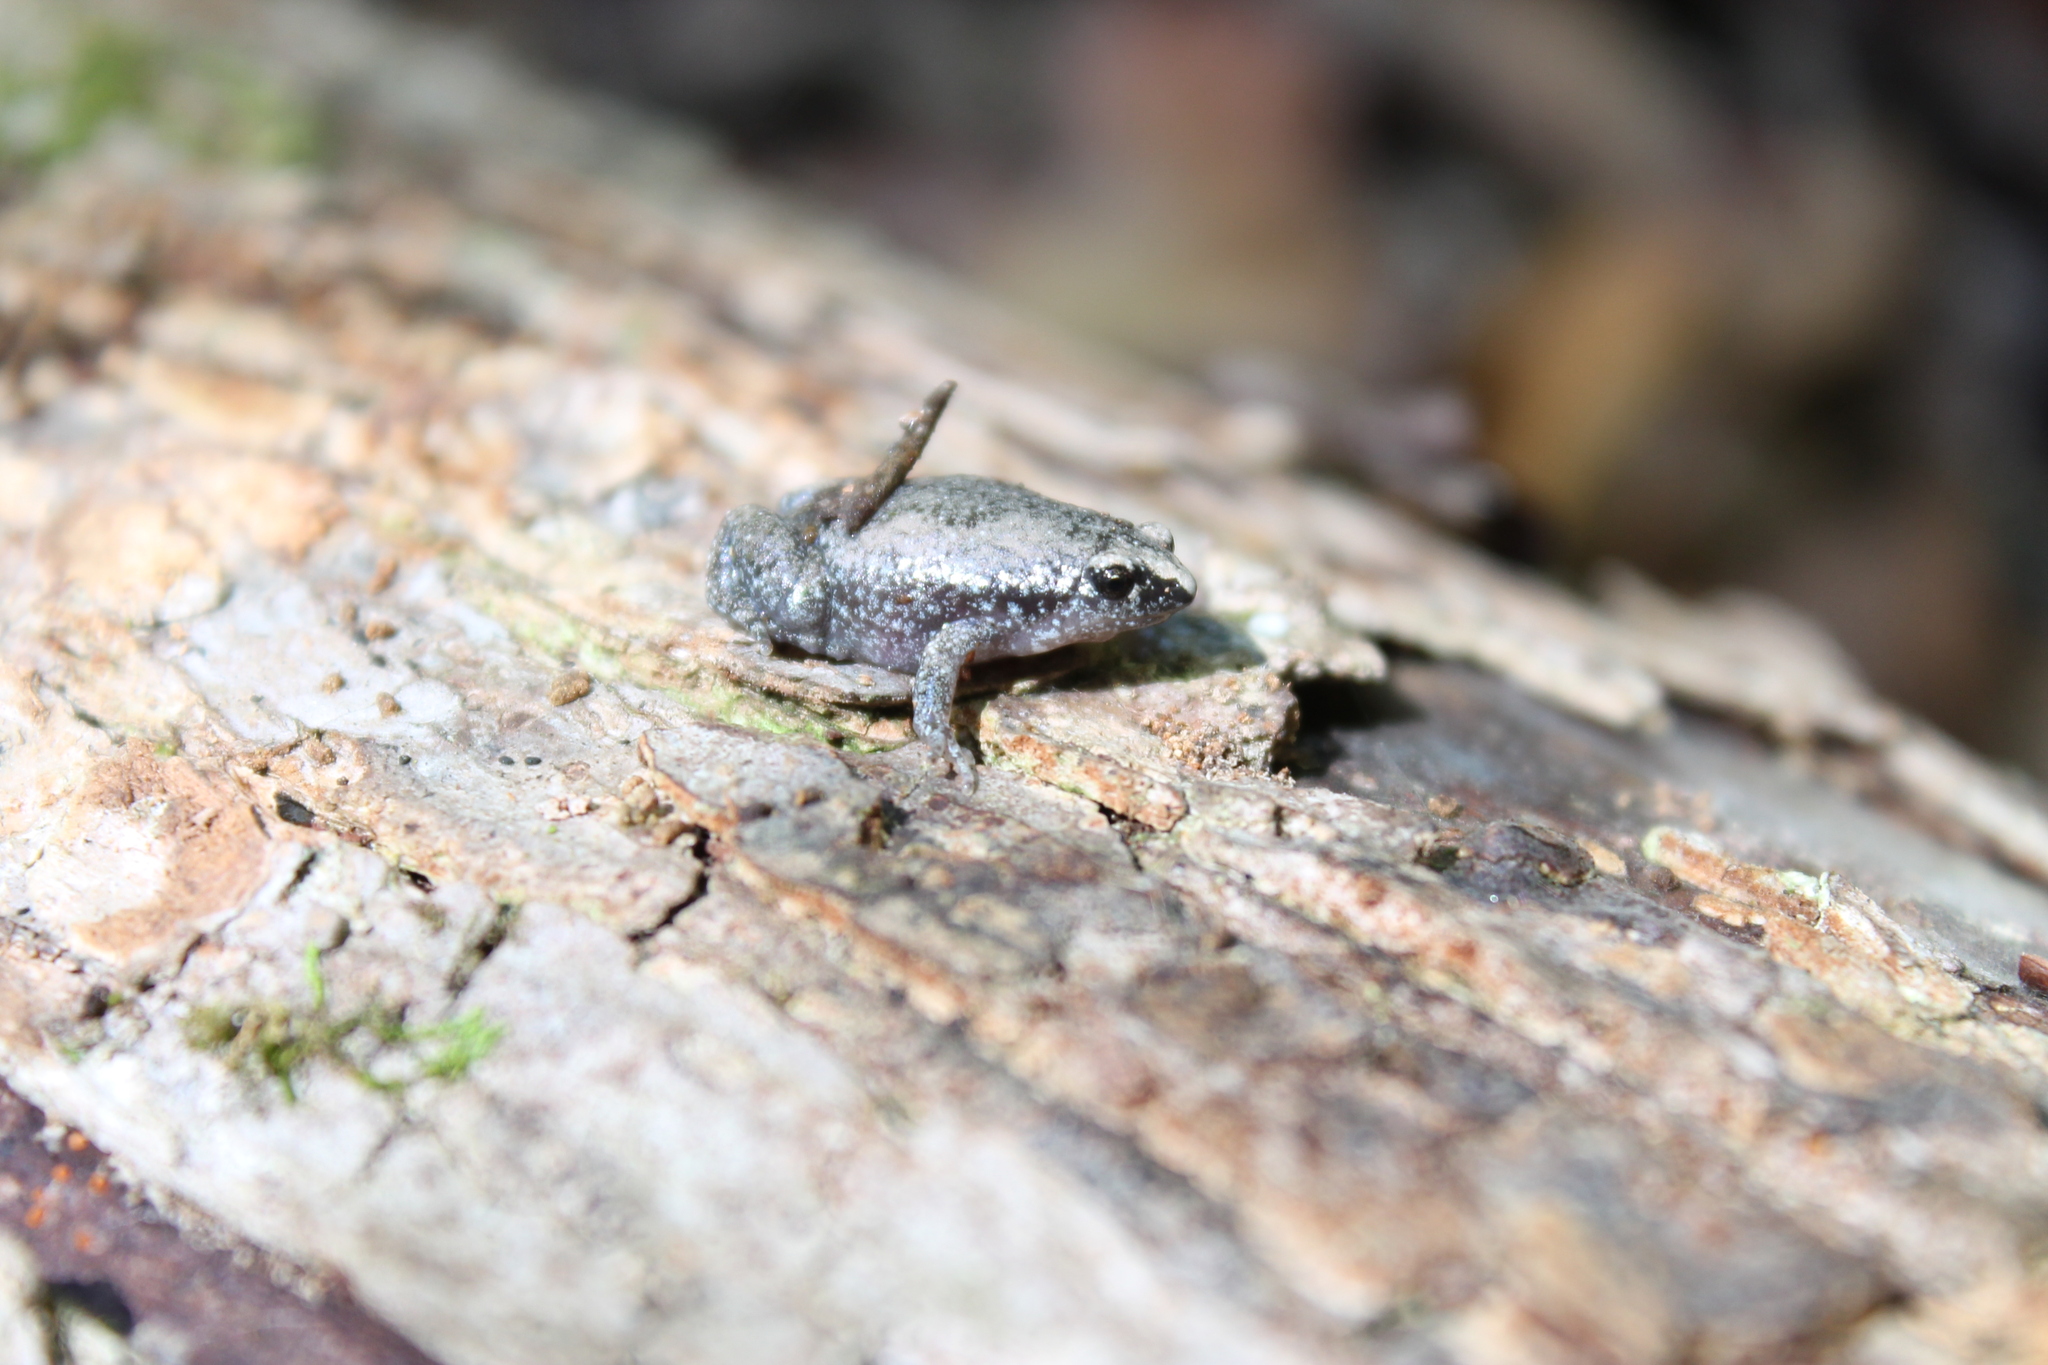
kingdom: Animalia
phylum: Chordata
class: Amphibia
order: Anura
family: Microhylidae
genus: Gastrophryne
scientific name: Gastrophryne carolinensis
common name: Eastern narrowmouth toad
